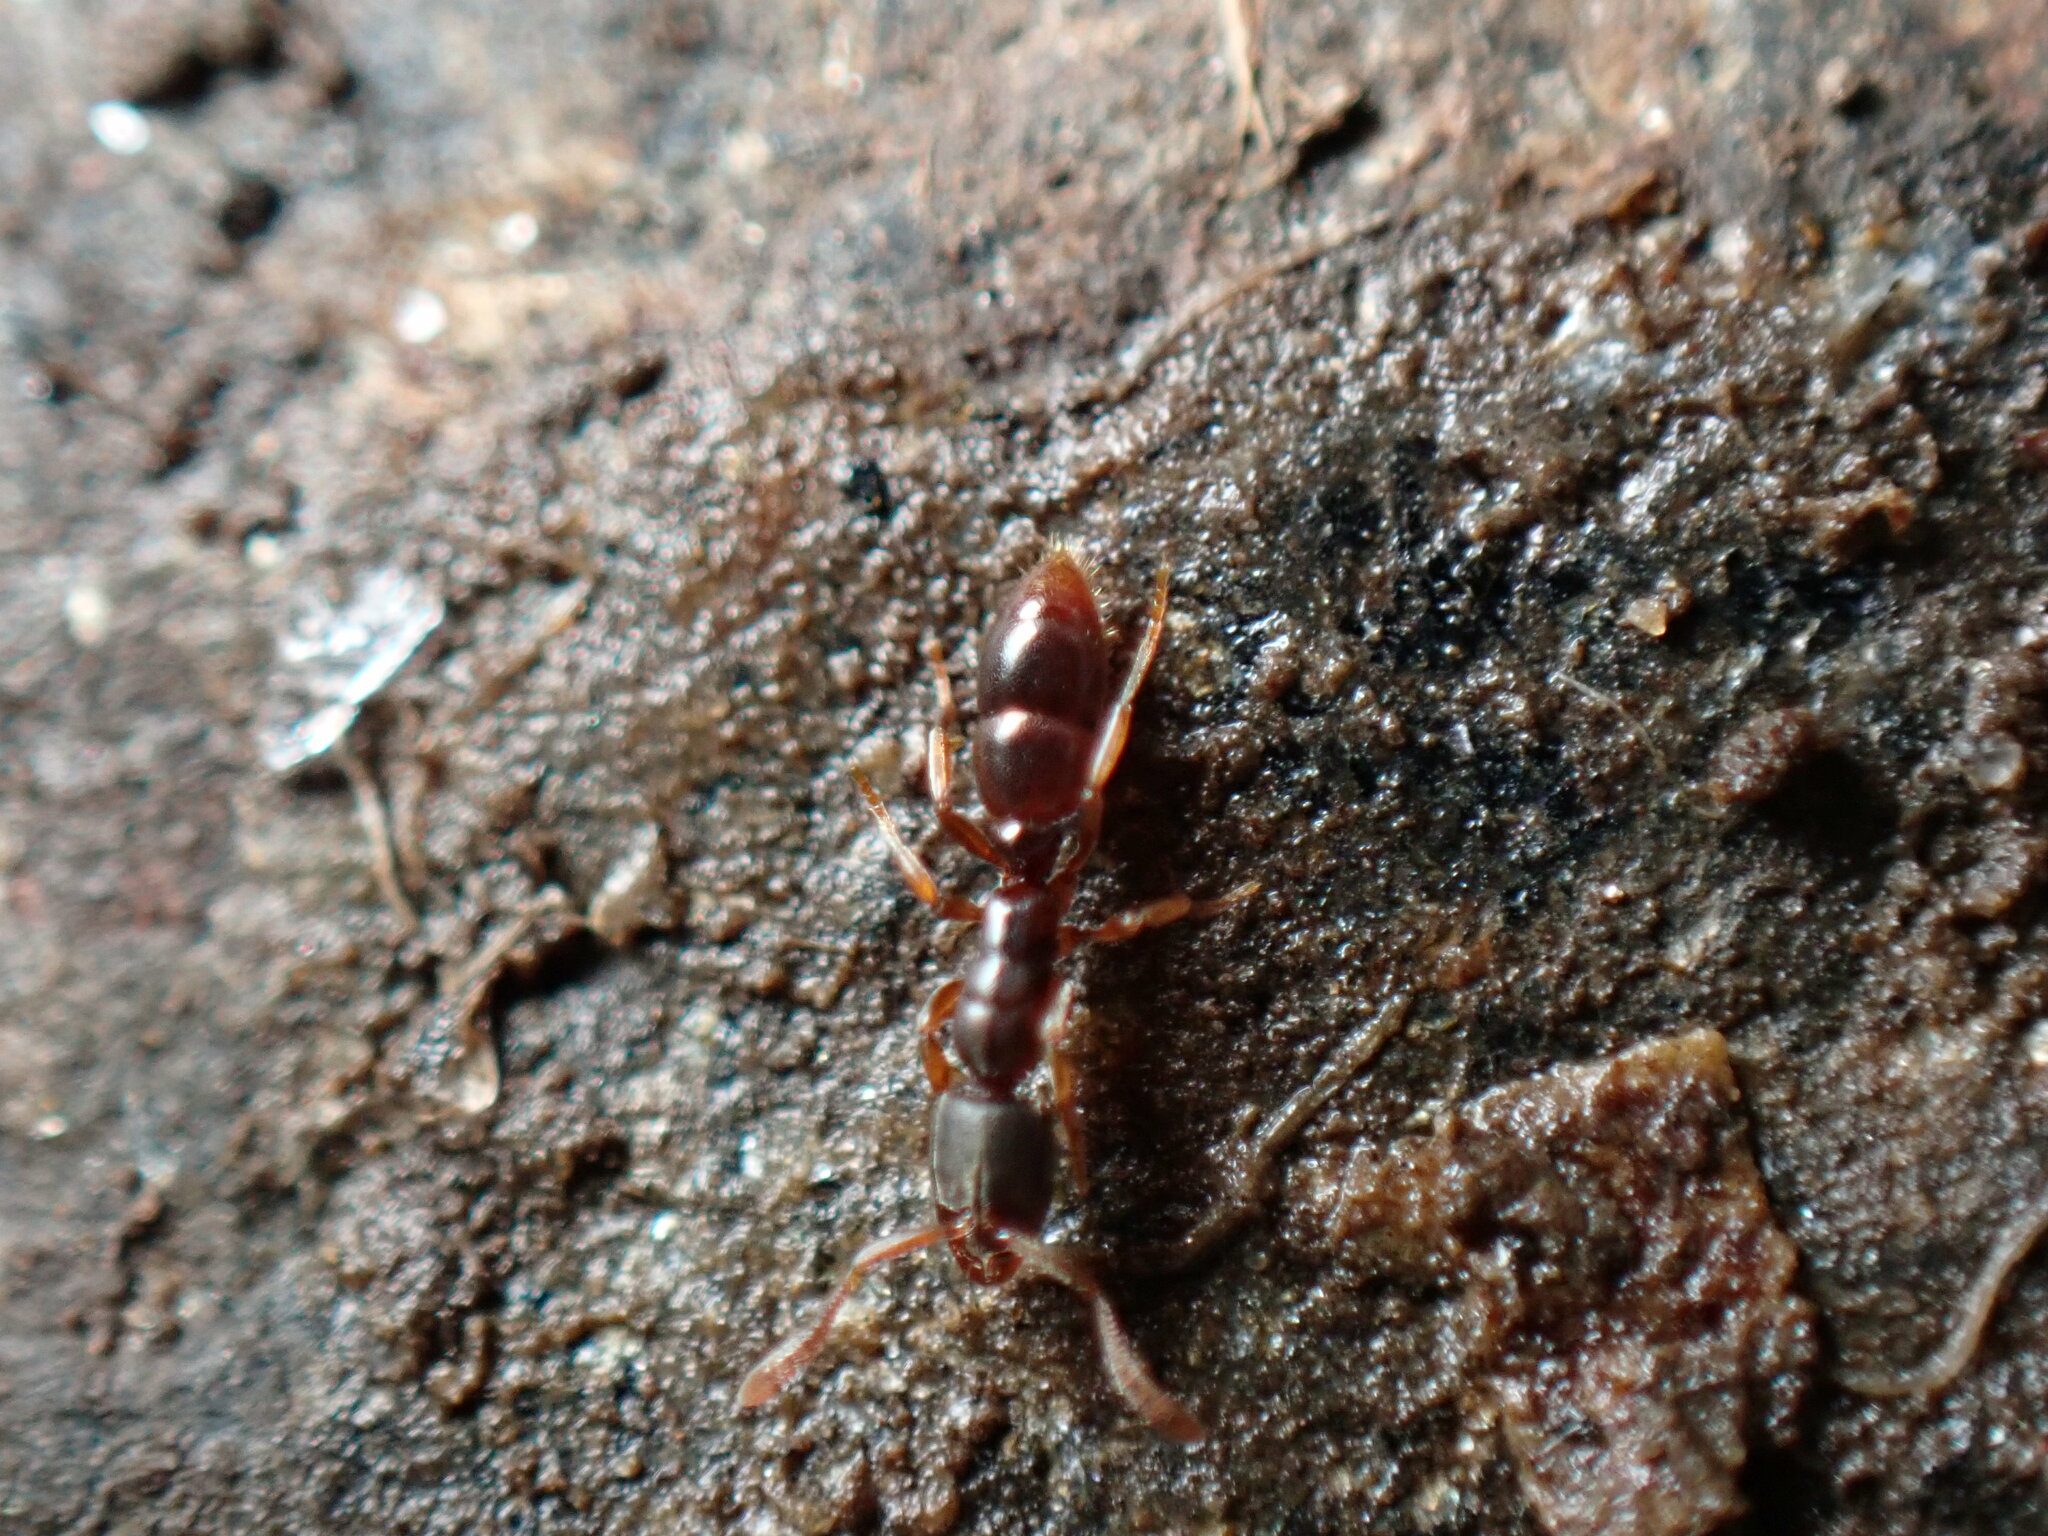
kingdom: Animalia
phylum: Arthropoda
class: Insecta
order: Hymenoptera
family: Formicidae
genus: Ponera
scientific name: Ponera pennsylvanica
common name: Pennsylvania ponera
